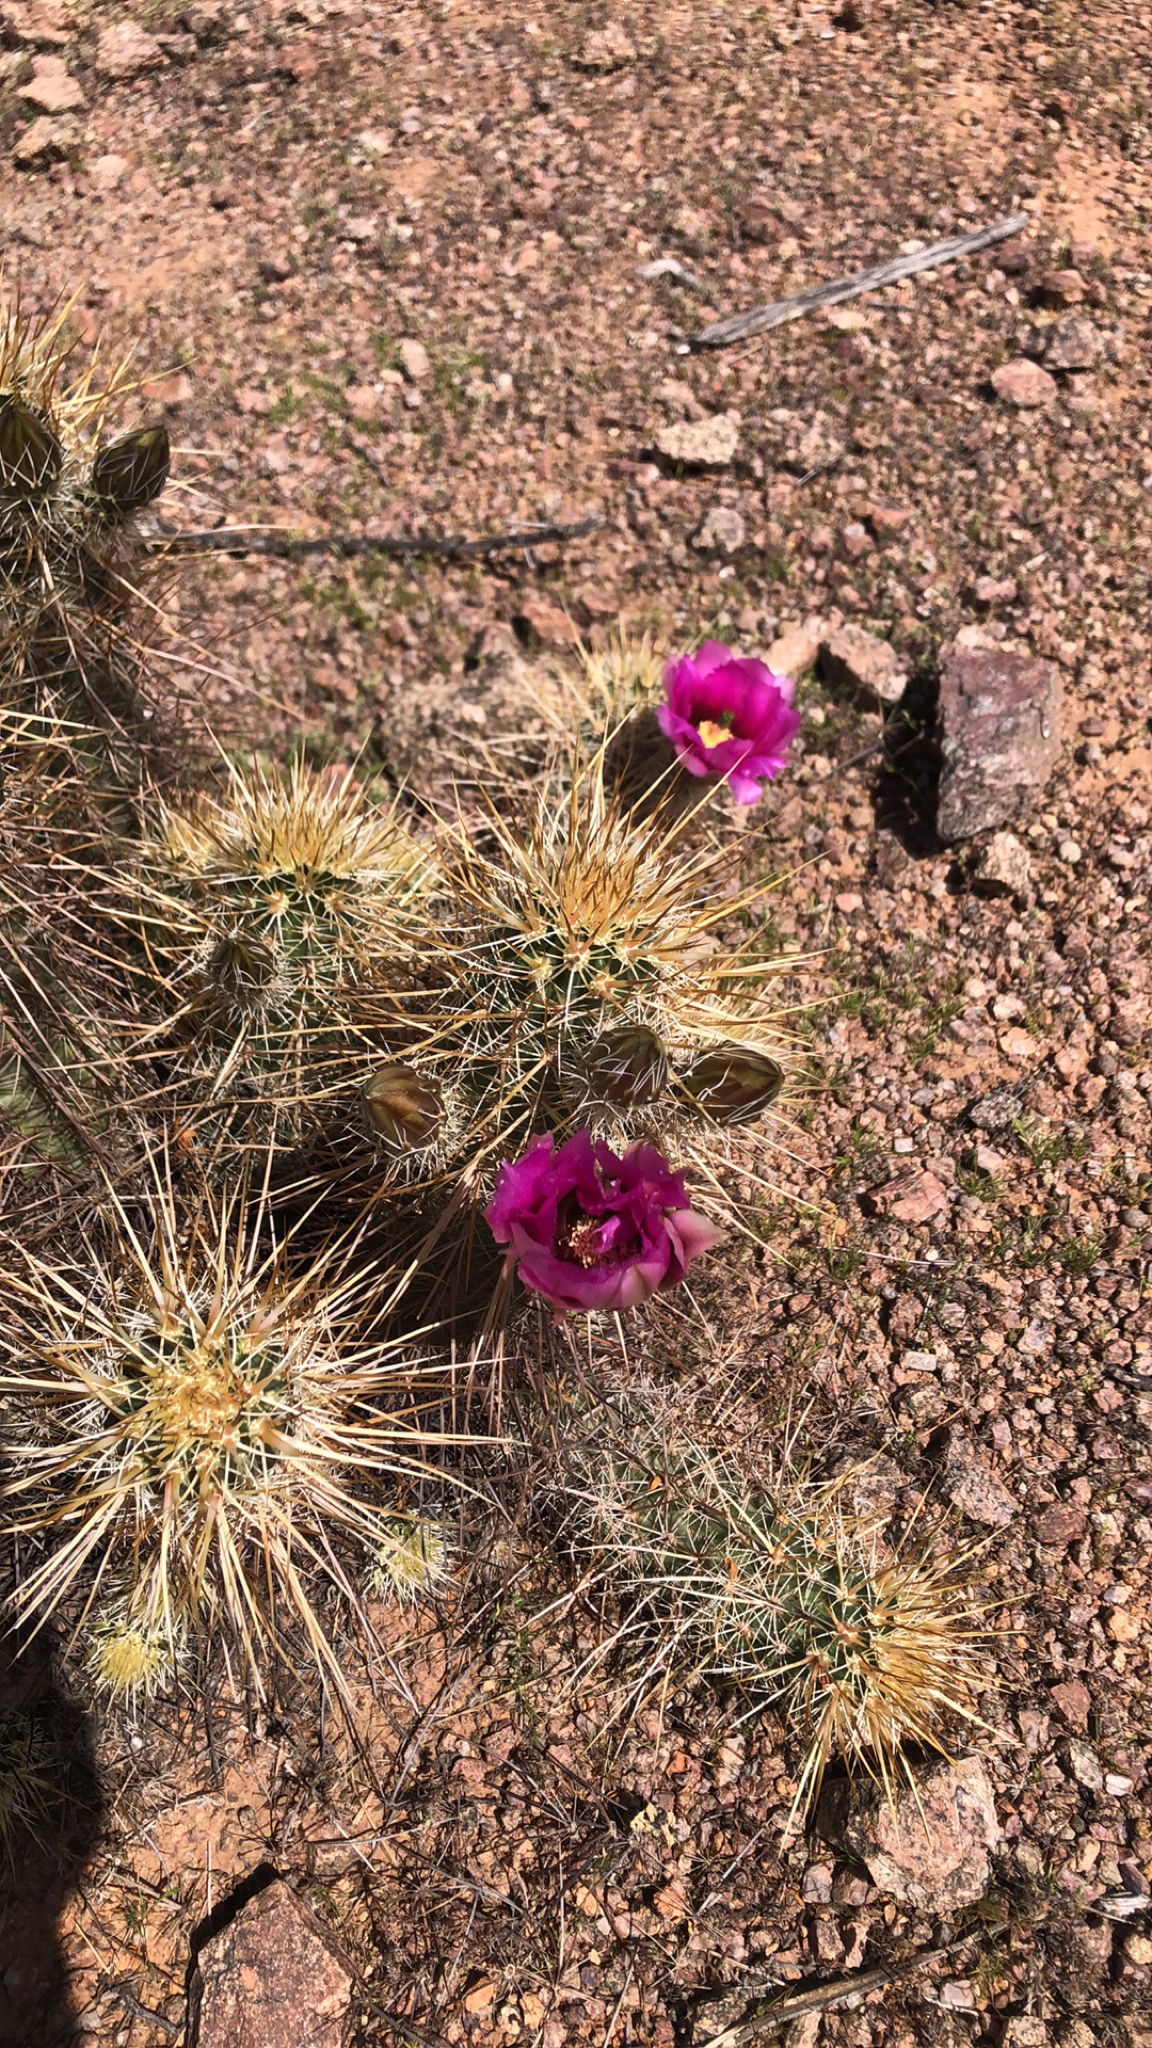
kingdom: Plantae
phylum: Tracheophyta
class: Magnoliopsida
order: Caryophyllales
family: Cactaceae
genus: Echinocereus
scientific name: Echinocereus engelmannii
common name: Engelmann's hedgehog cactus
